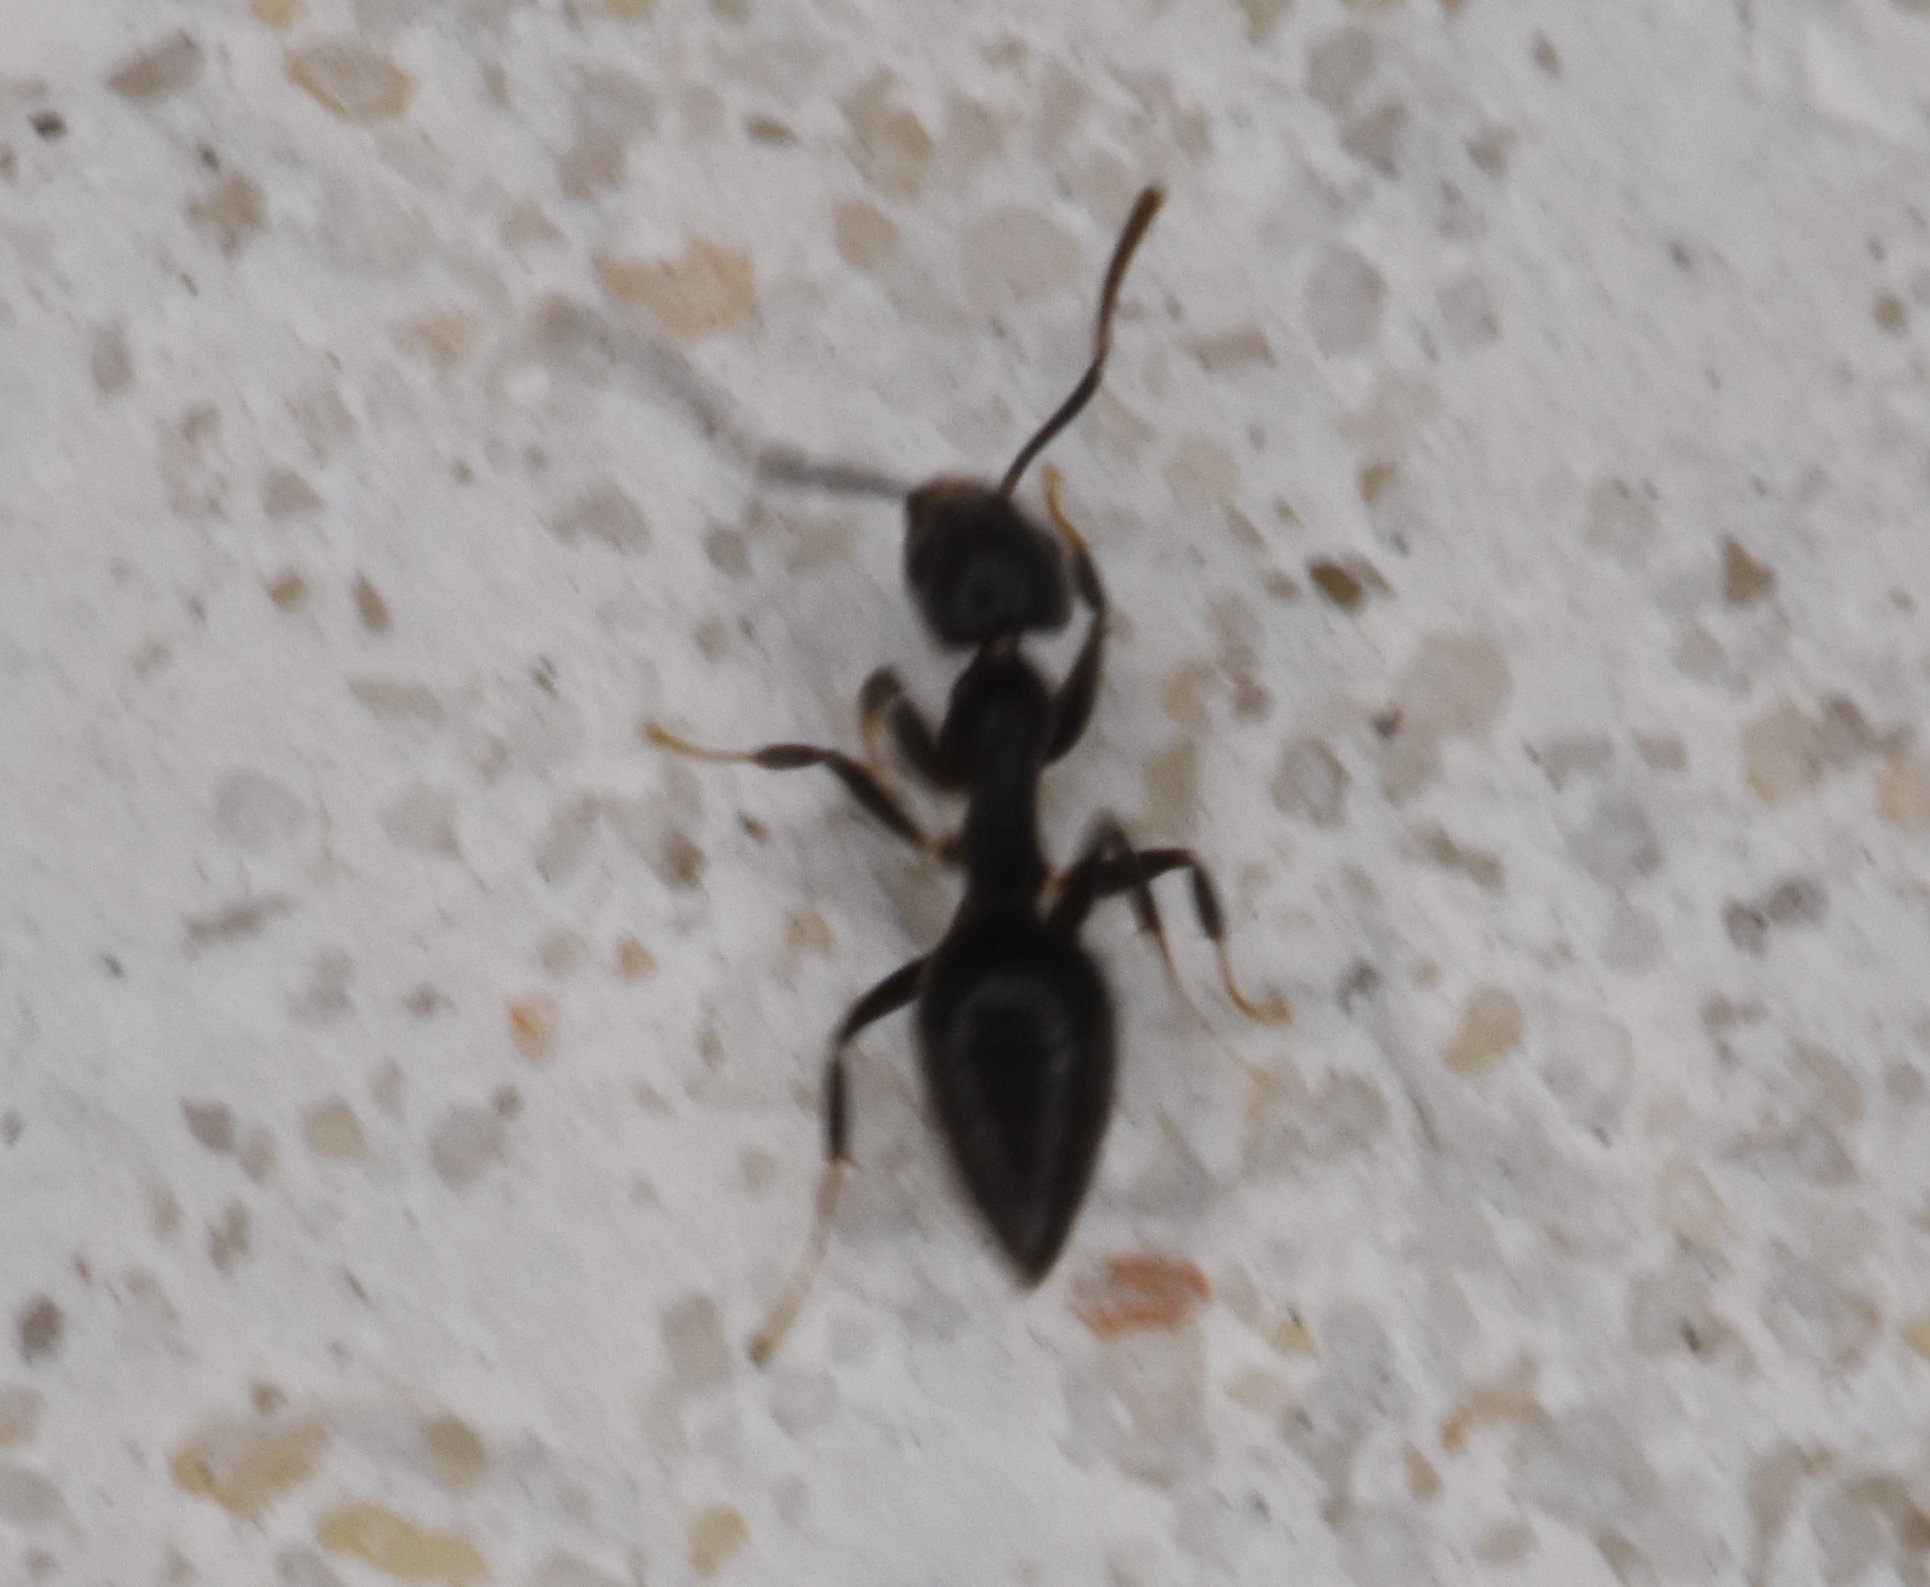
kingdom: Animalia
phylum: Arthropoda
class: Insecta
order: Hymenoptera
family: Formicidae
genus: Technomyrmex
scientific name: Technomyrmex difficilis
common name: Ant
